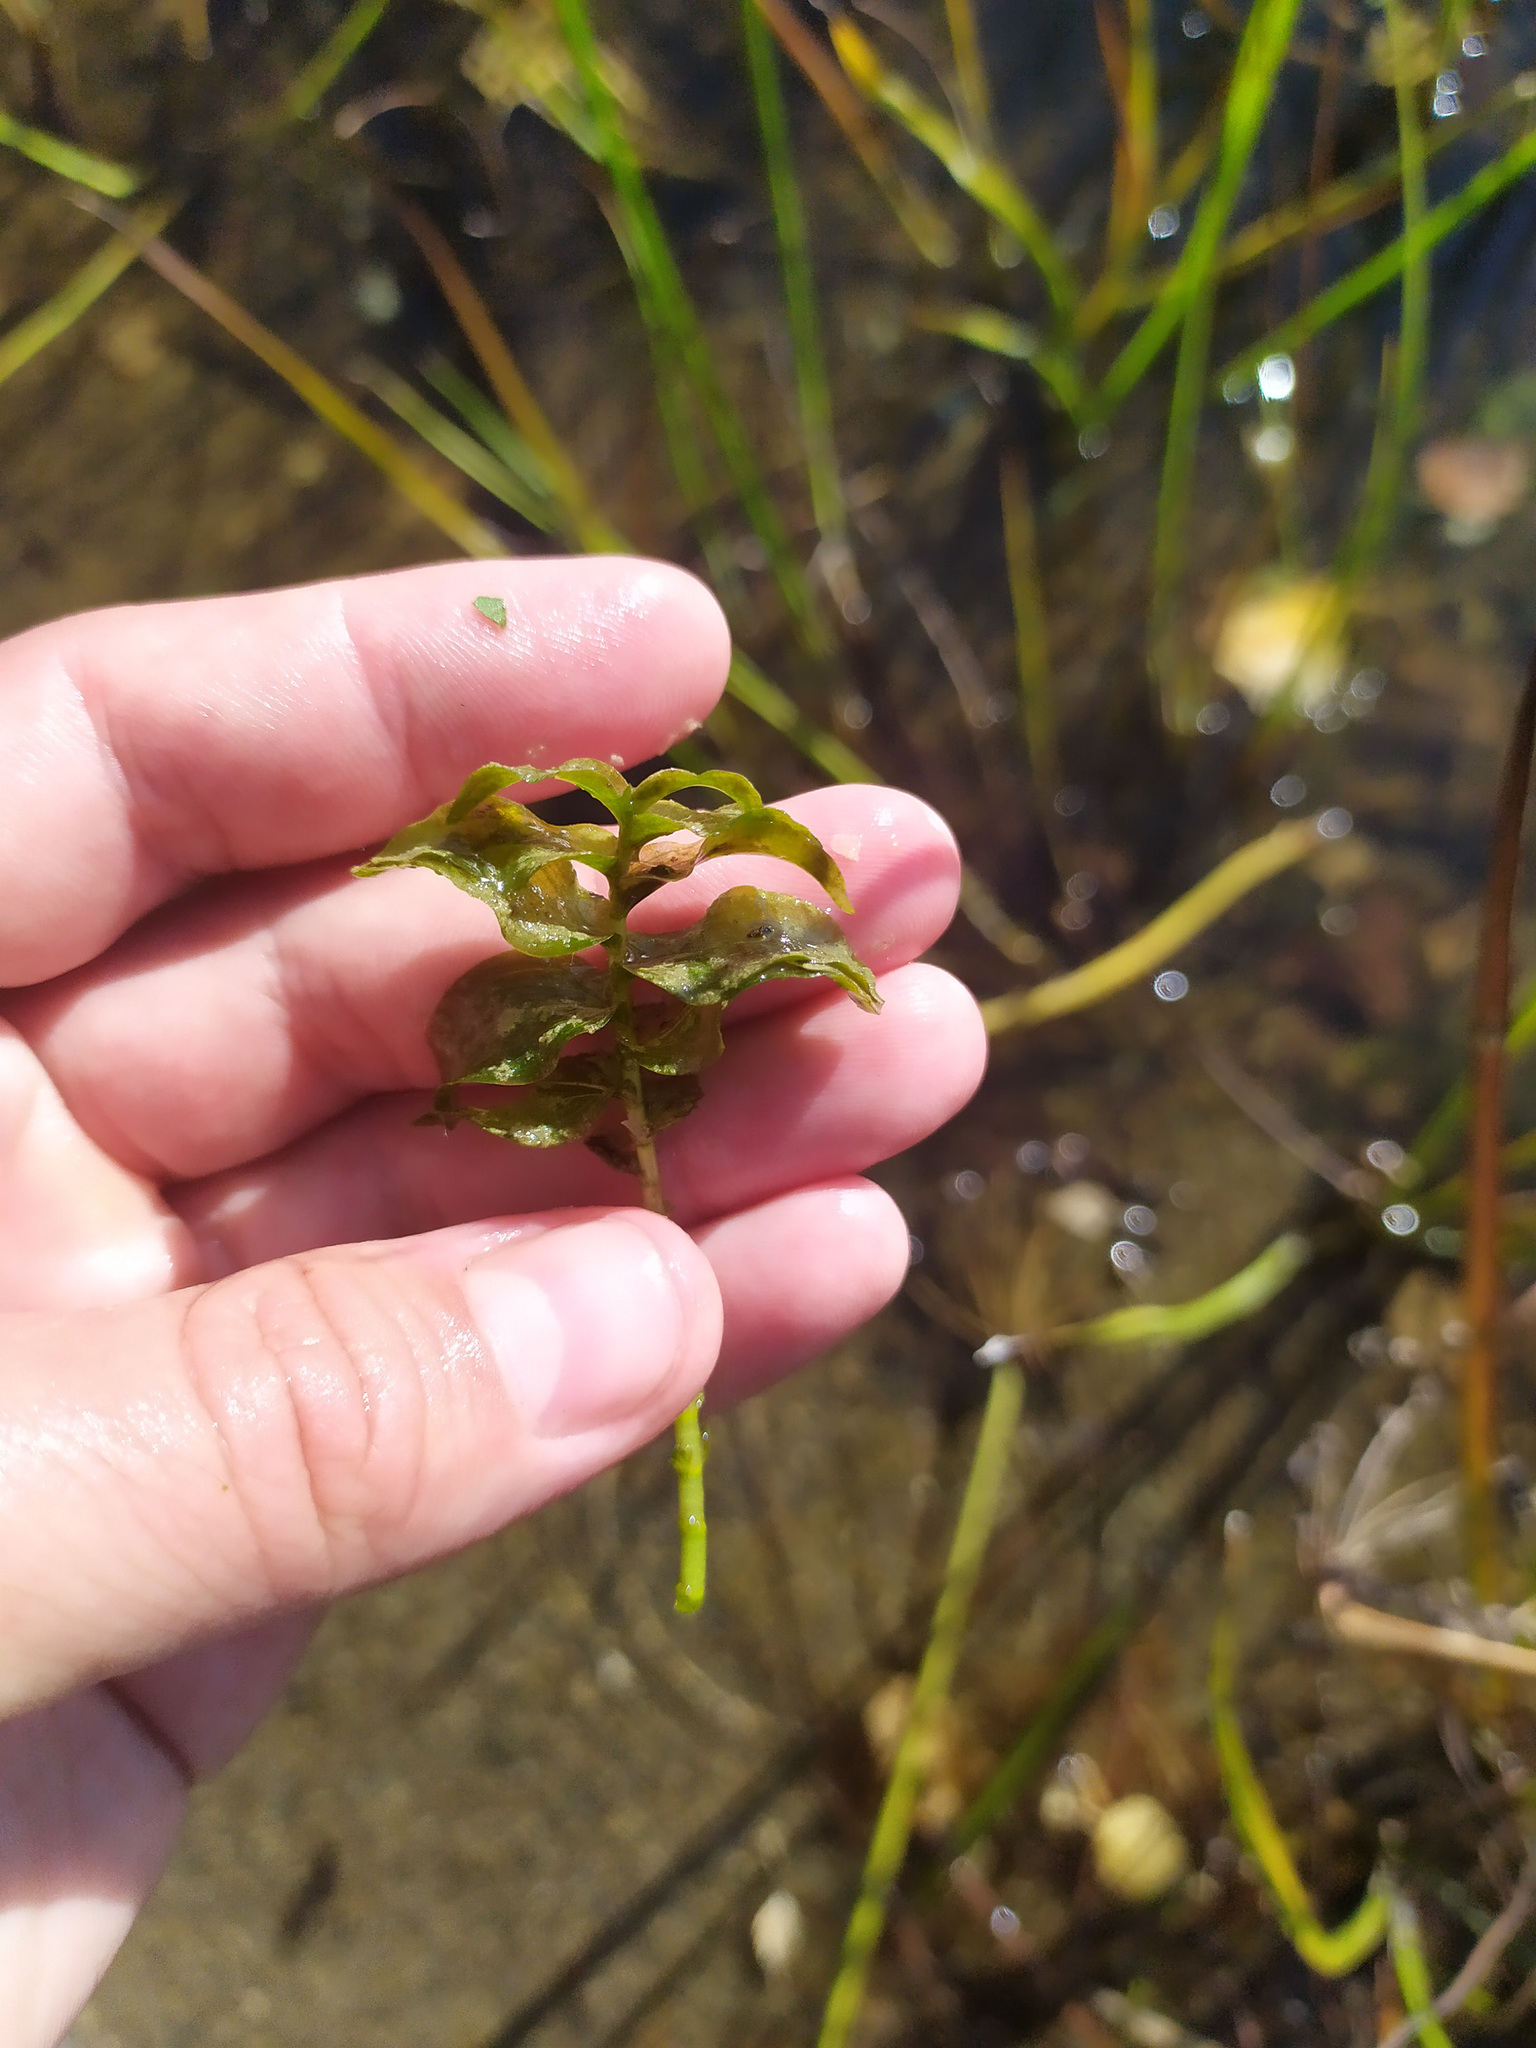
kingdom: Plantae
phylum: Tracheophyta
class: Liliopsida
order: Alismatales
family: Potamogetonaceae
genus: Potamogeton
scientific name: Potamogeton perfoliatus
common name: Perfoliate pondweed
